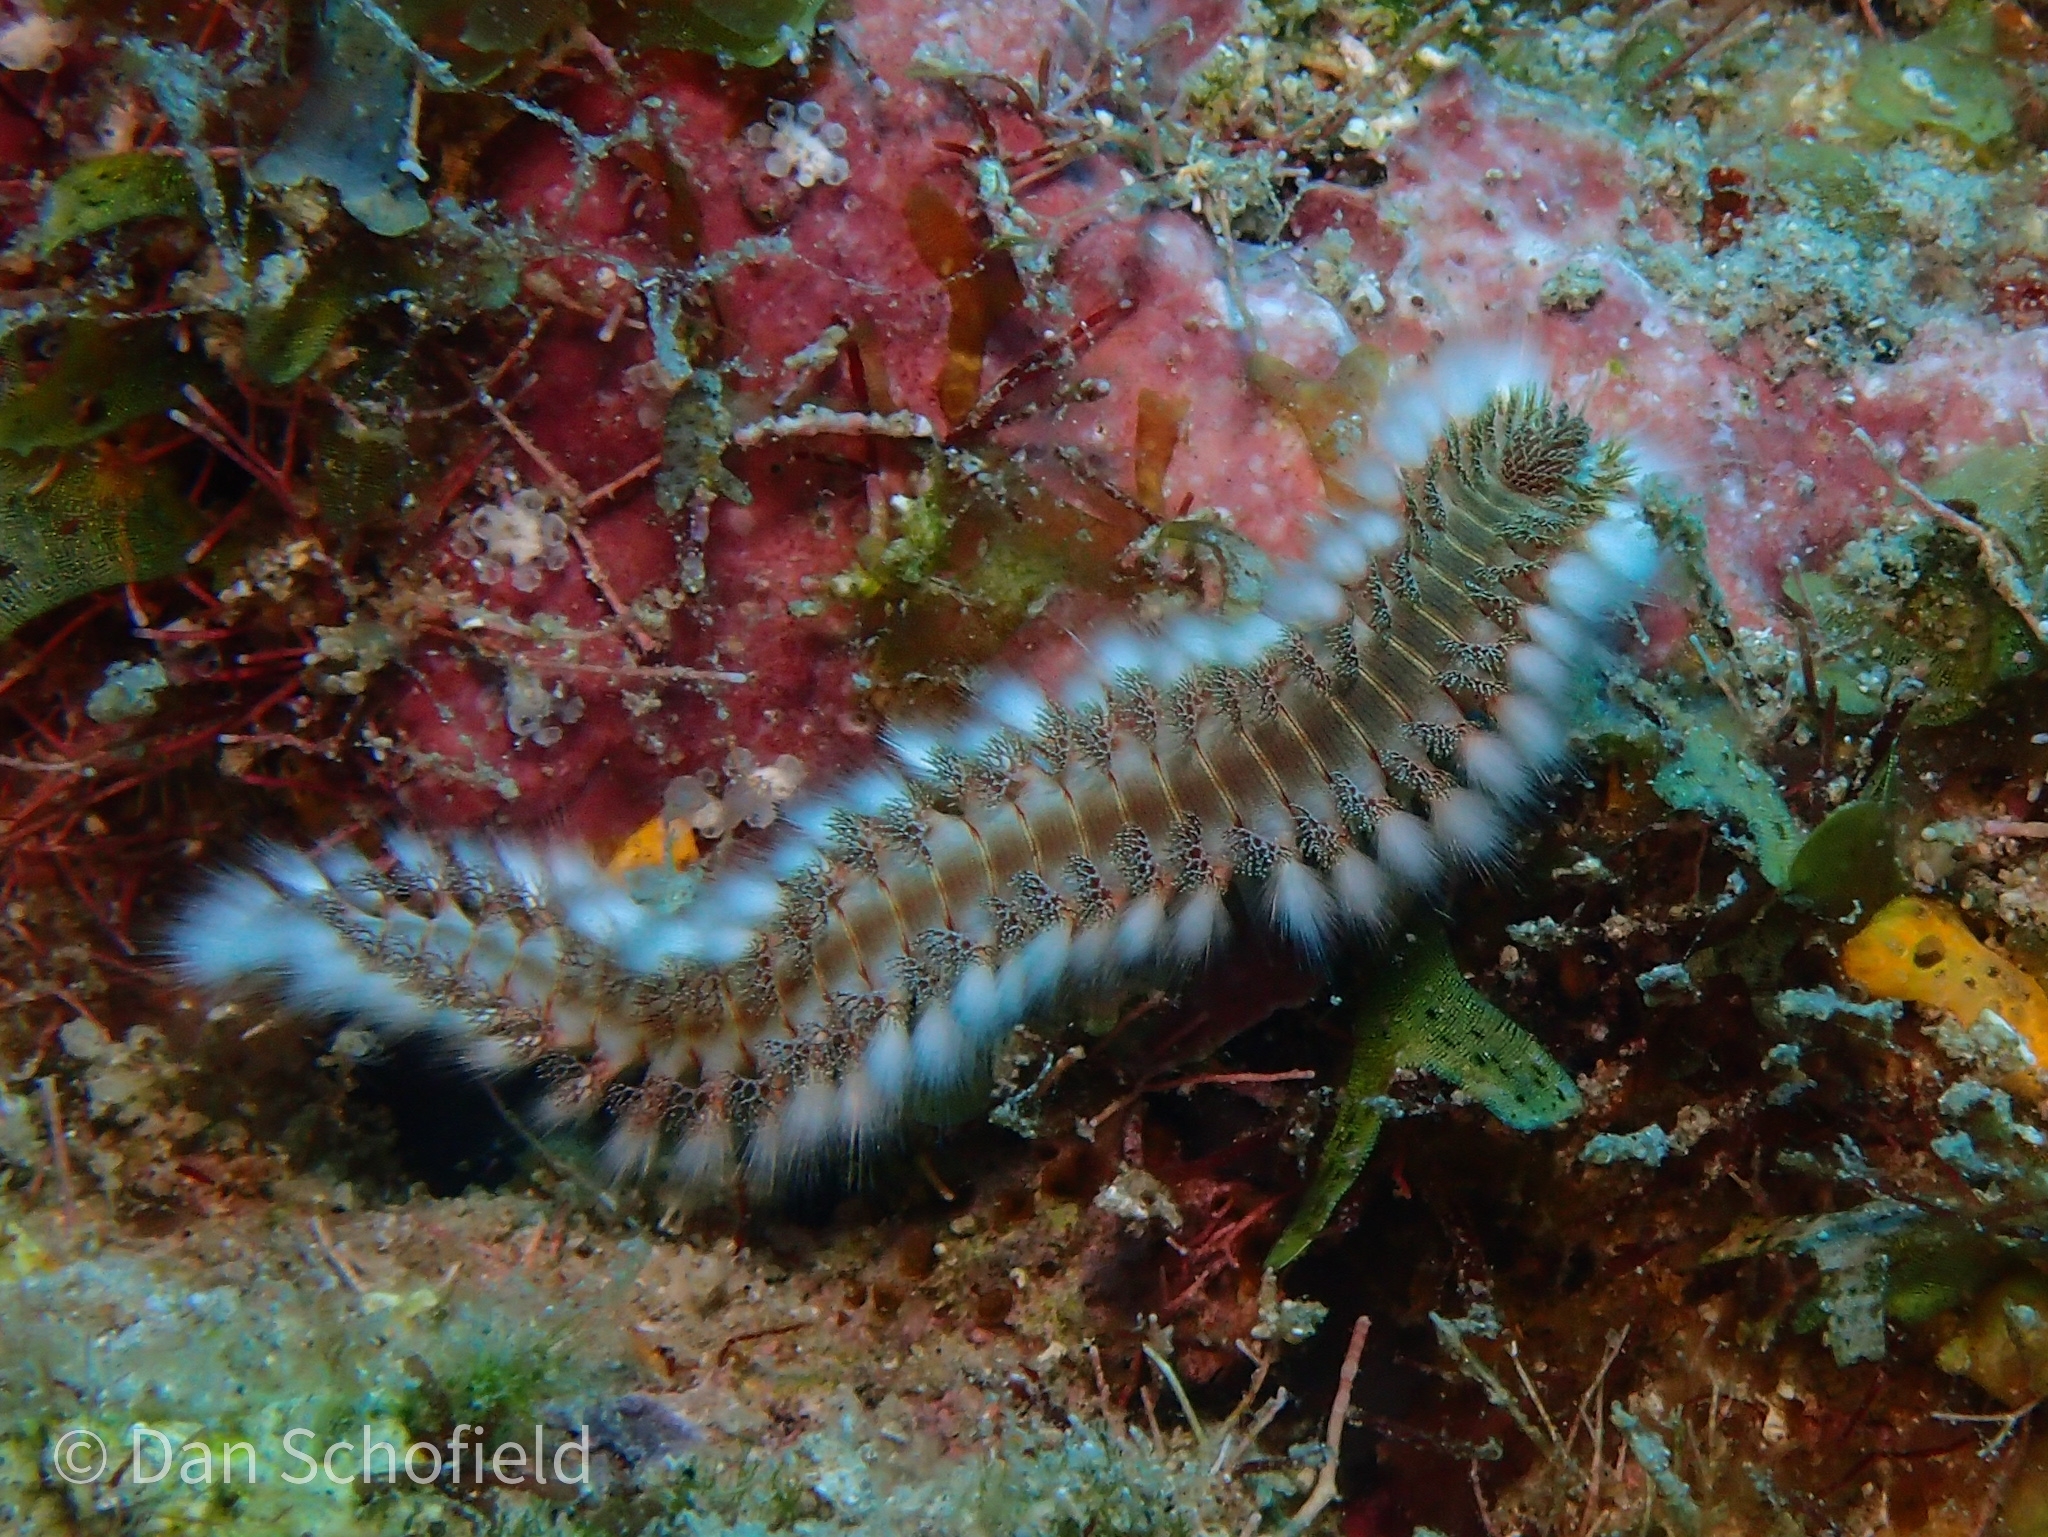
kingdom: Animalia
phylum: Annelida
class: Polychaeta
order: Amphinomida
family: Amphinomidae
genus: Hermodice
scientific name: Hermodice carunculata
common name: Bearded fireworm
